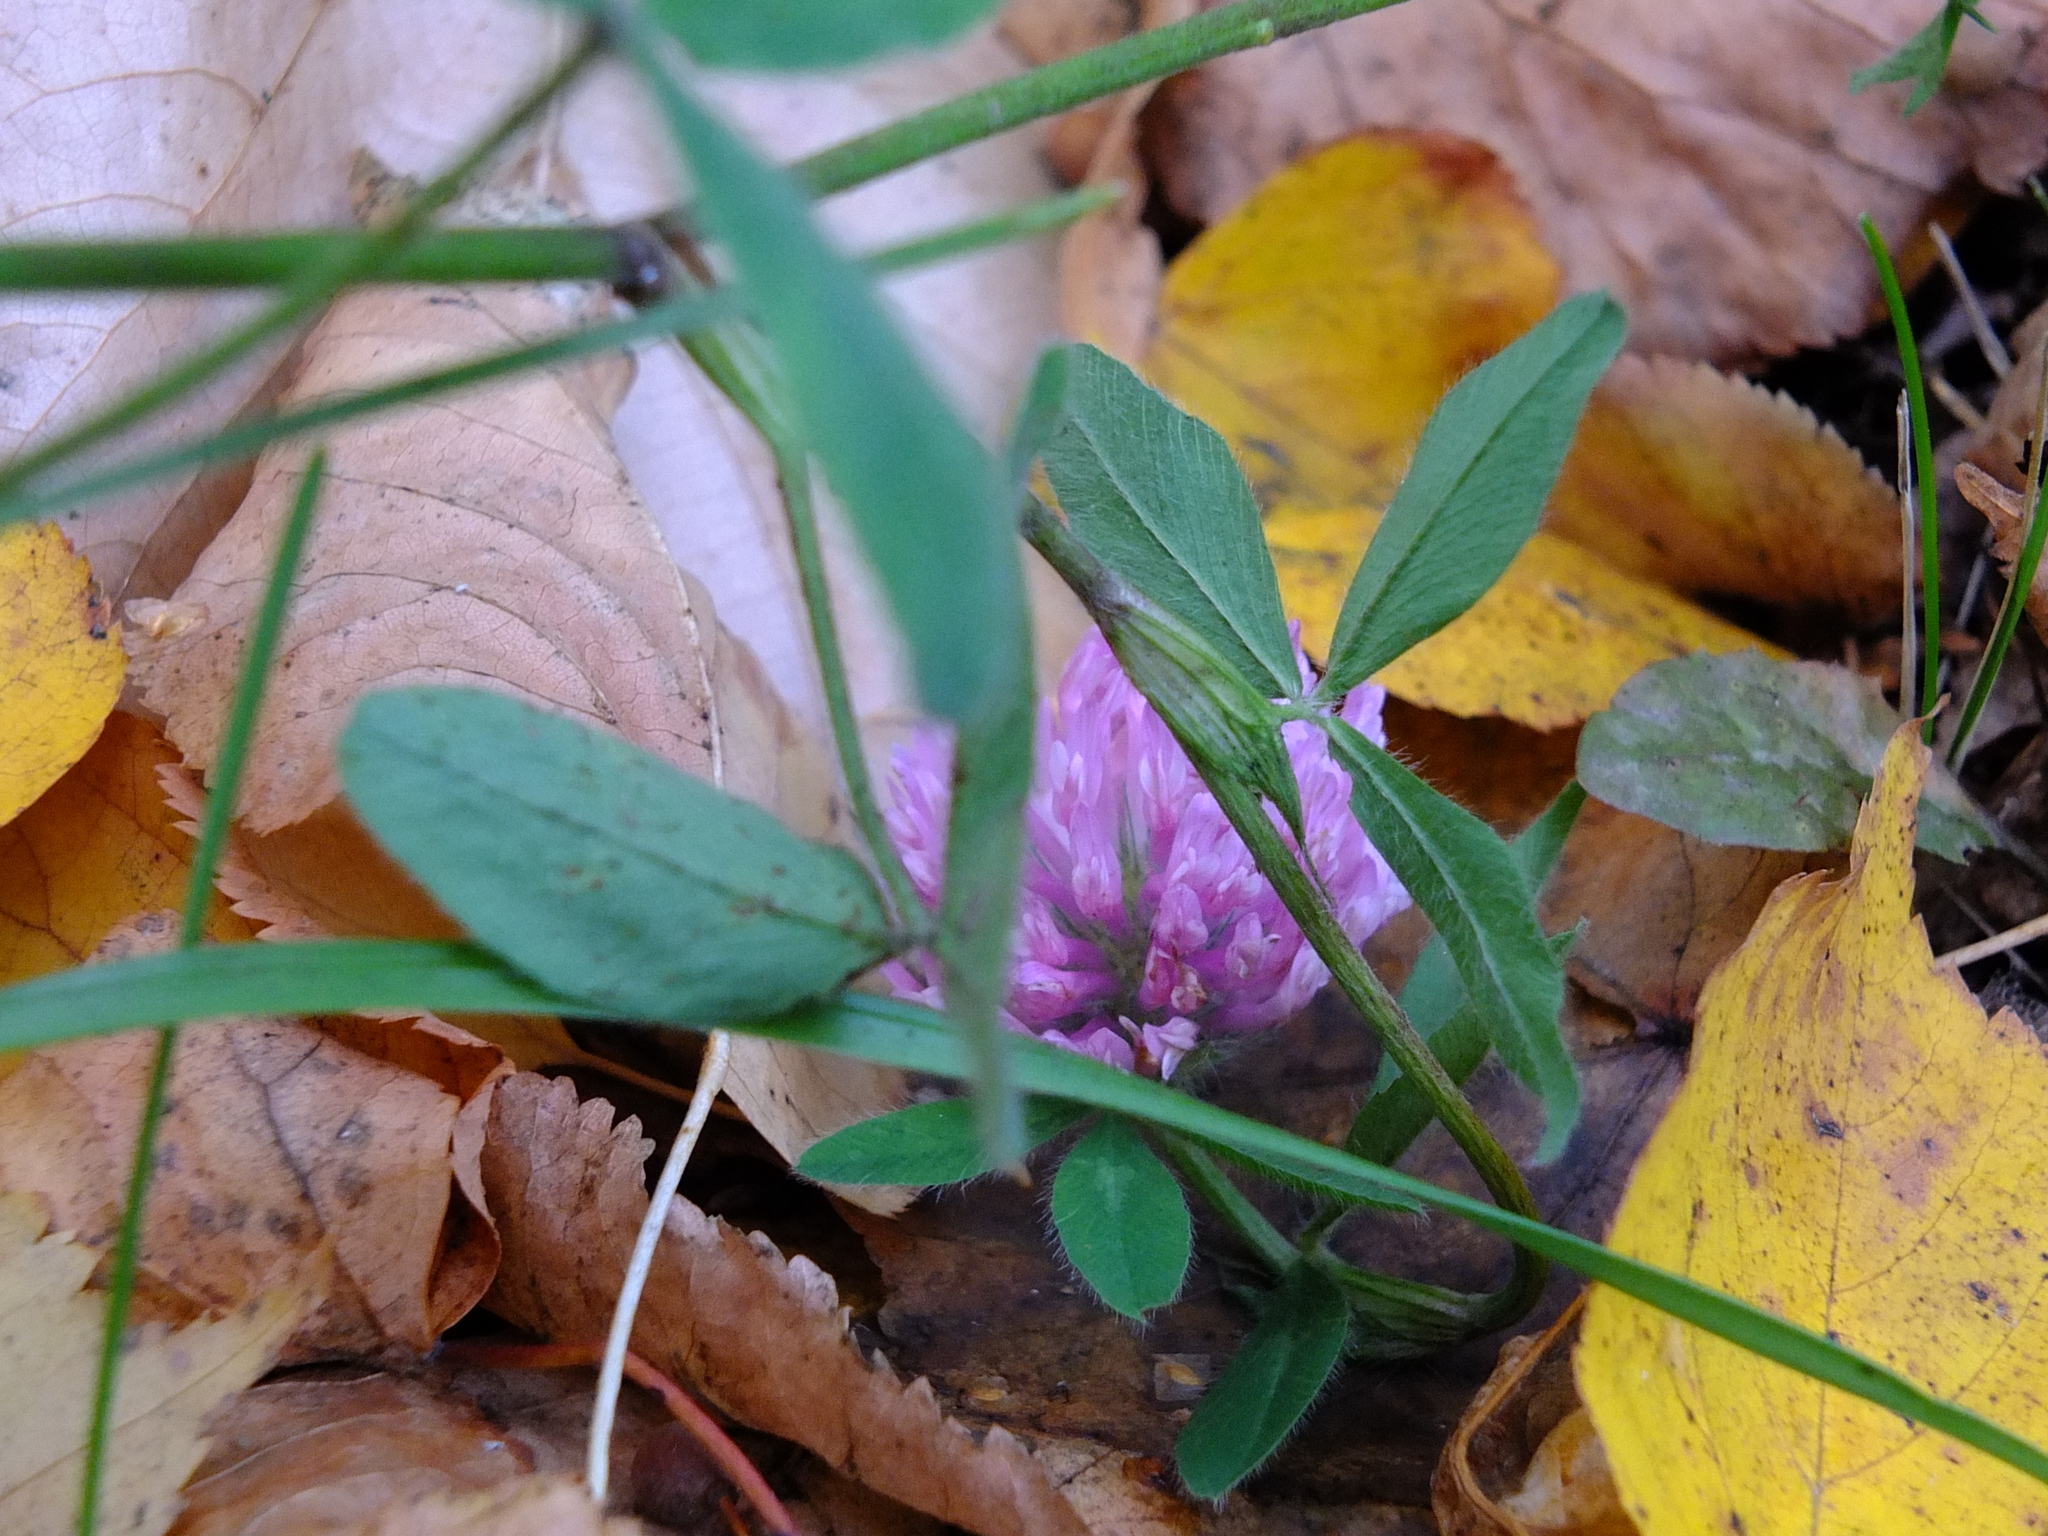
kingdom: Plantae
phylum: Tracheophyta
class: Magnoliopsida
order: Fabales
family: Fabaceae
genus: Trifolium
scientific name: Trifolium pratense
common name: Red clover
